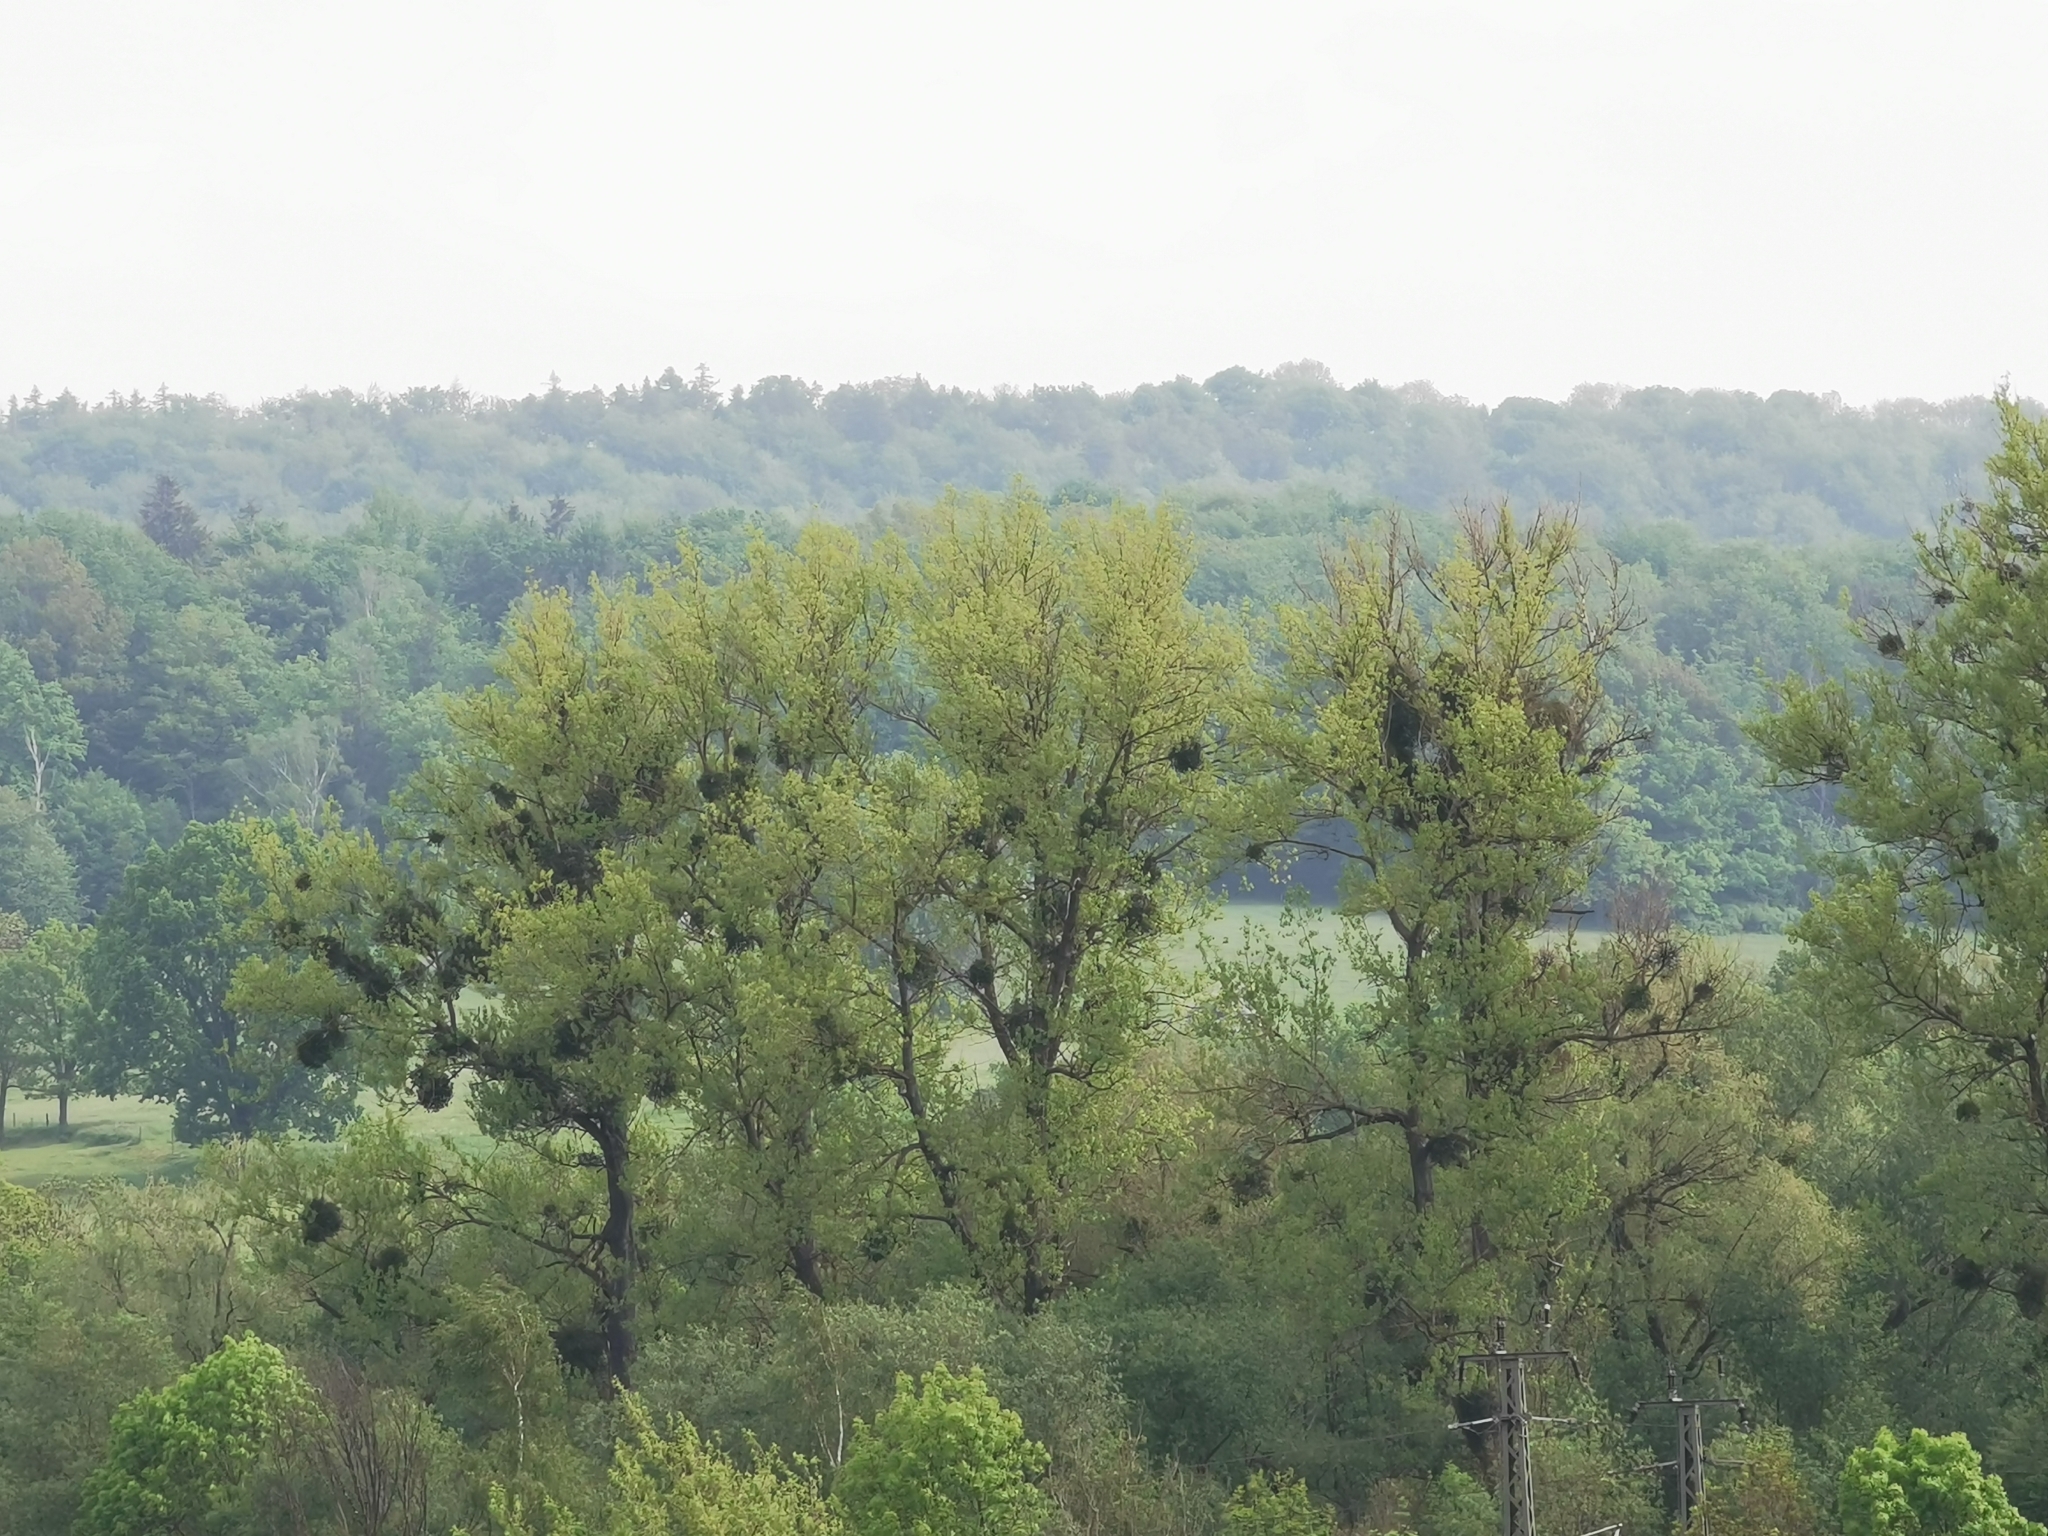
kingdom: Plantae
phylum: Tracheophyta
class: Magnoliopsida
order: Santalales
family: Viscaceae
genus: Viscum
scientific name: Viscum album
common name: Mistletoe
